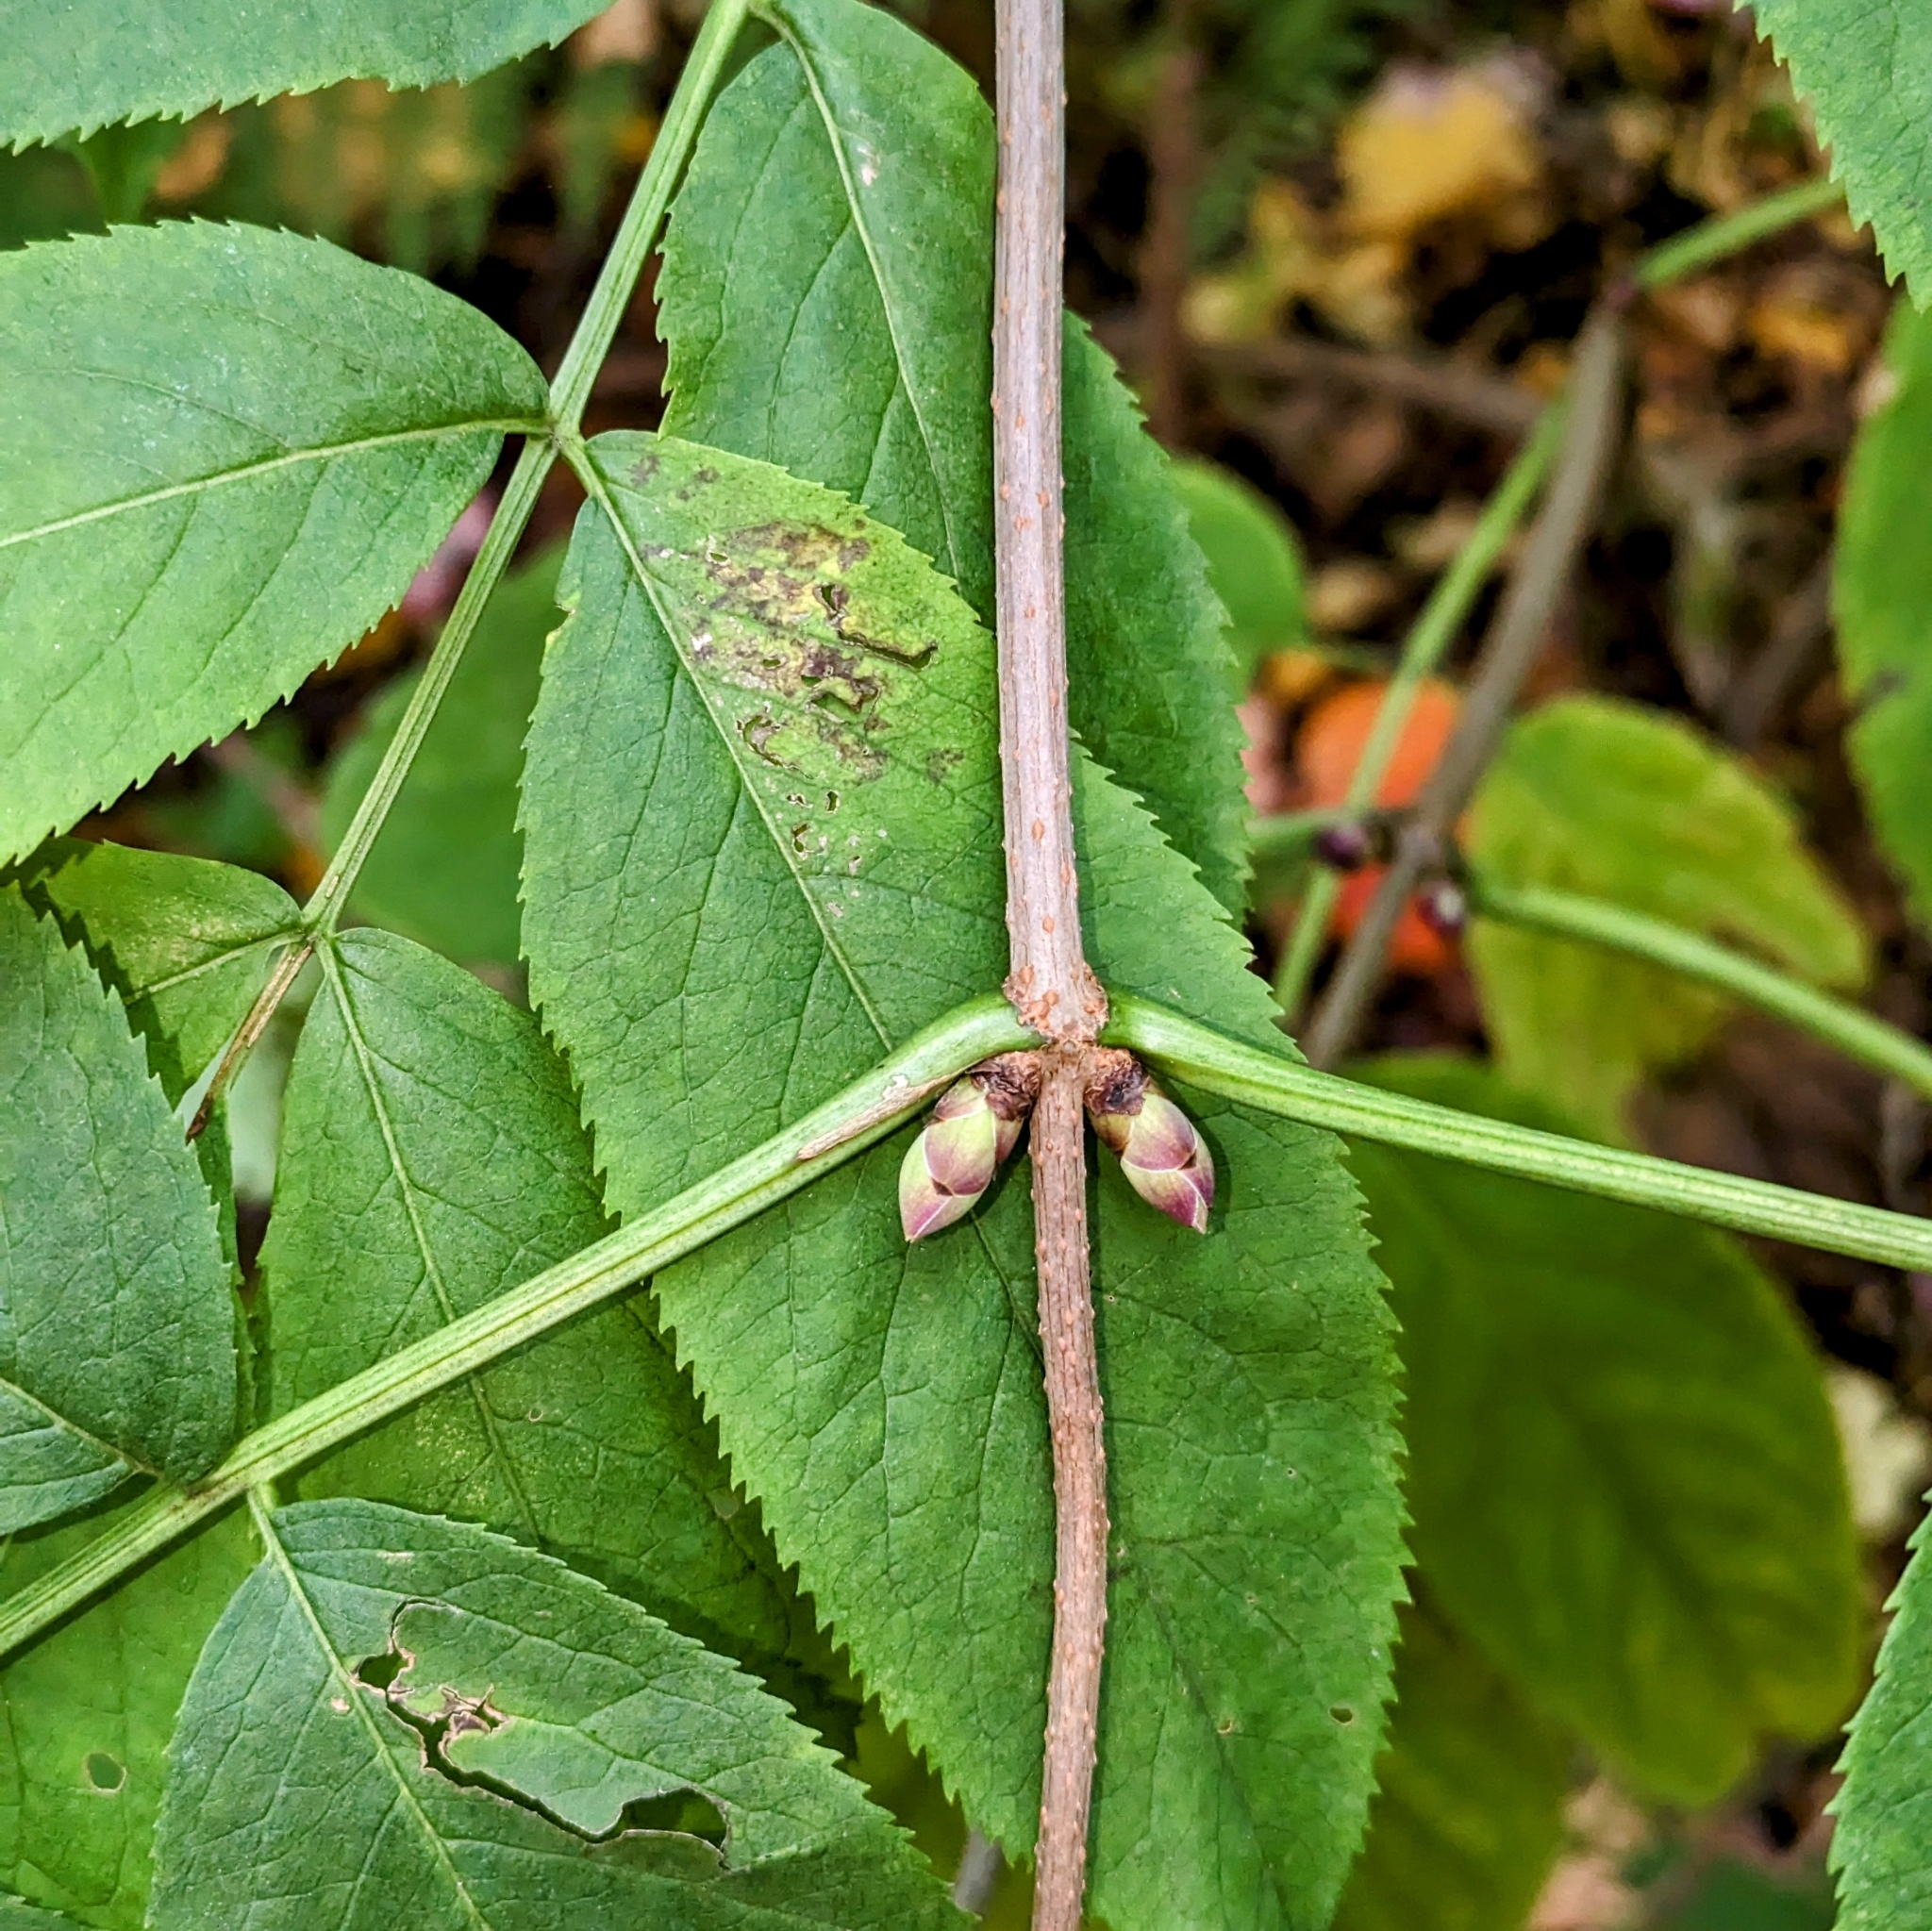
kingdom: Plantae
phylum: Tracheophyta
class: Magnoliopsida
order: Dipsacales
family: Viburnaceae
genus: Sambucus
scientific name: Sambucus racemosa
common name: Red-berried elder
